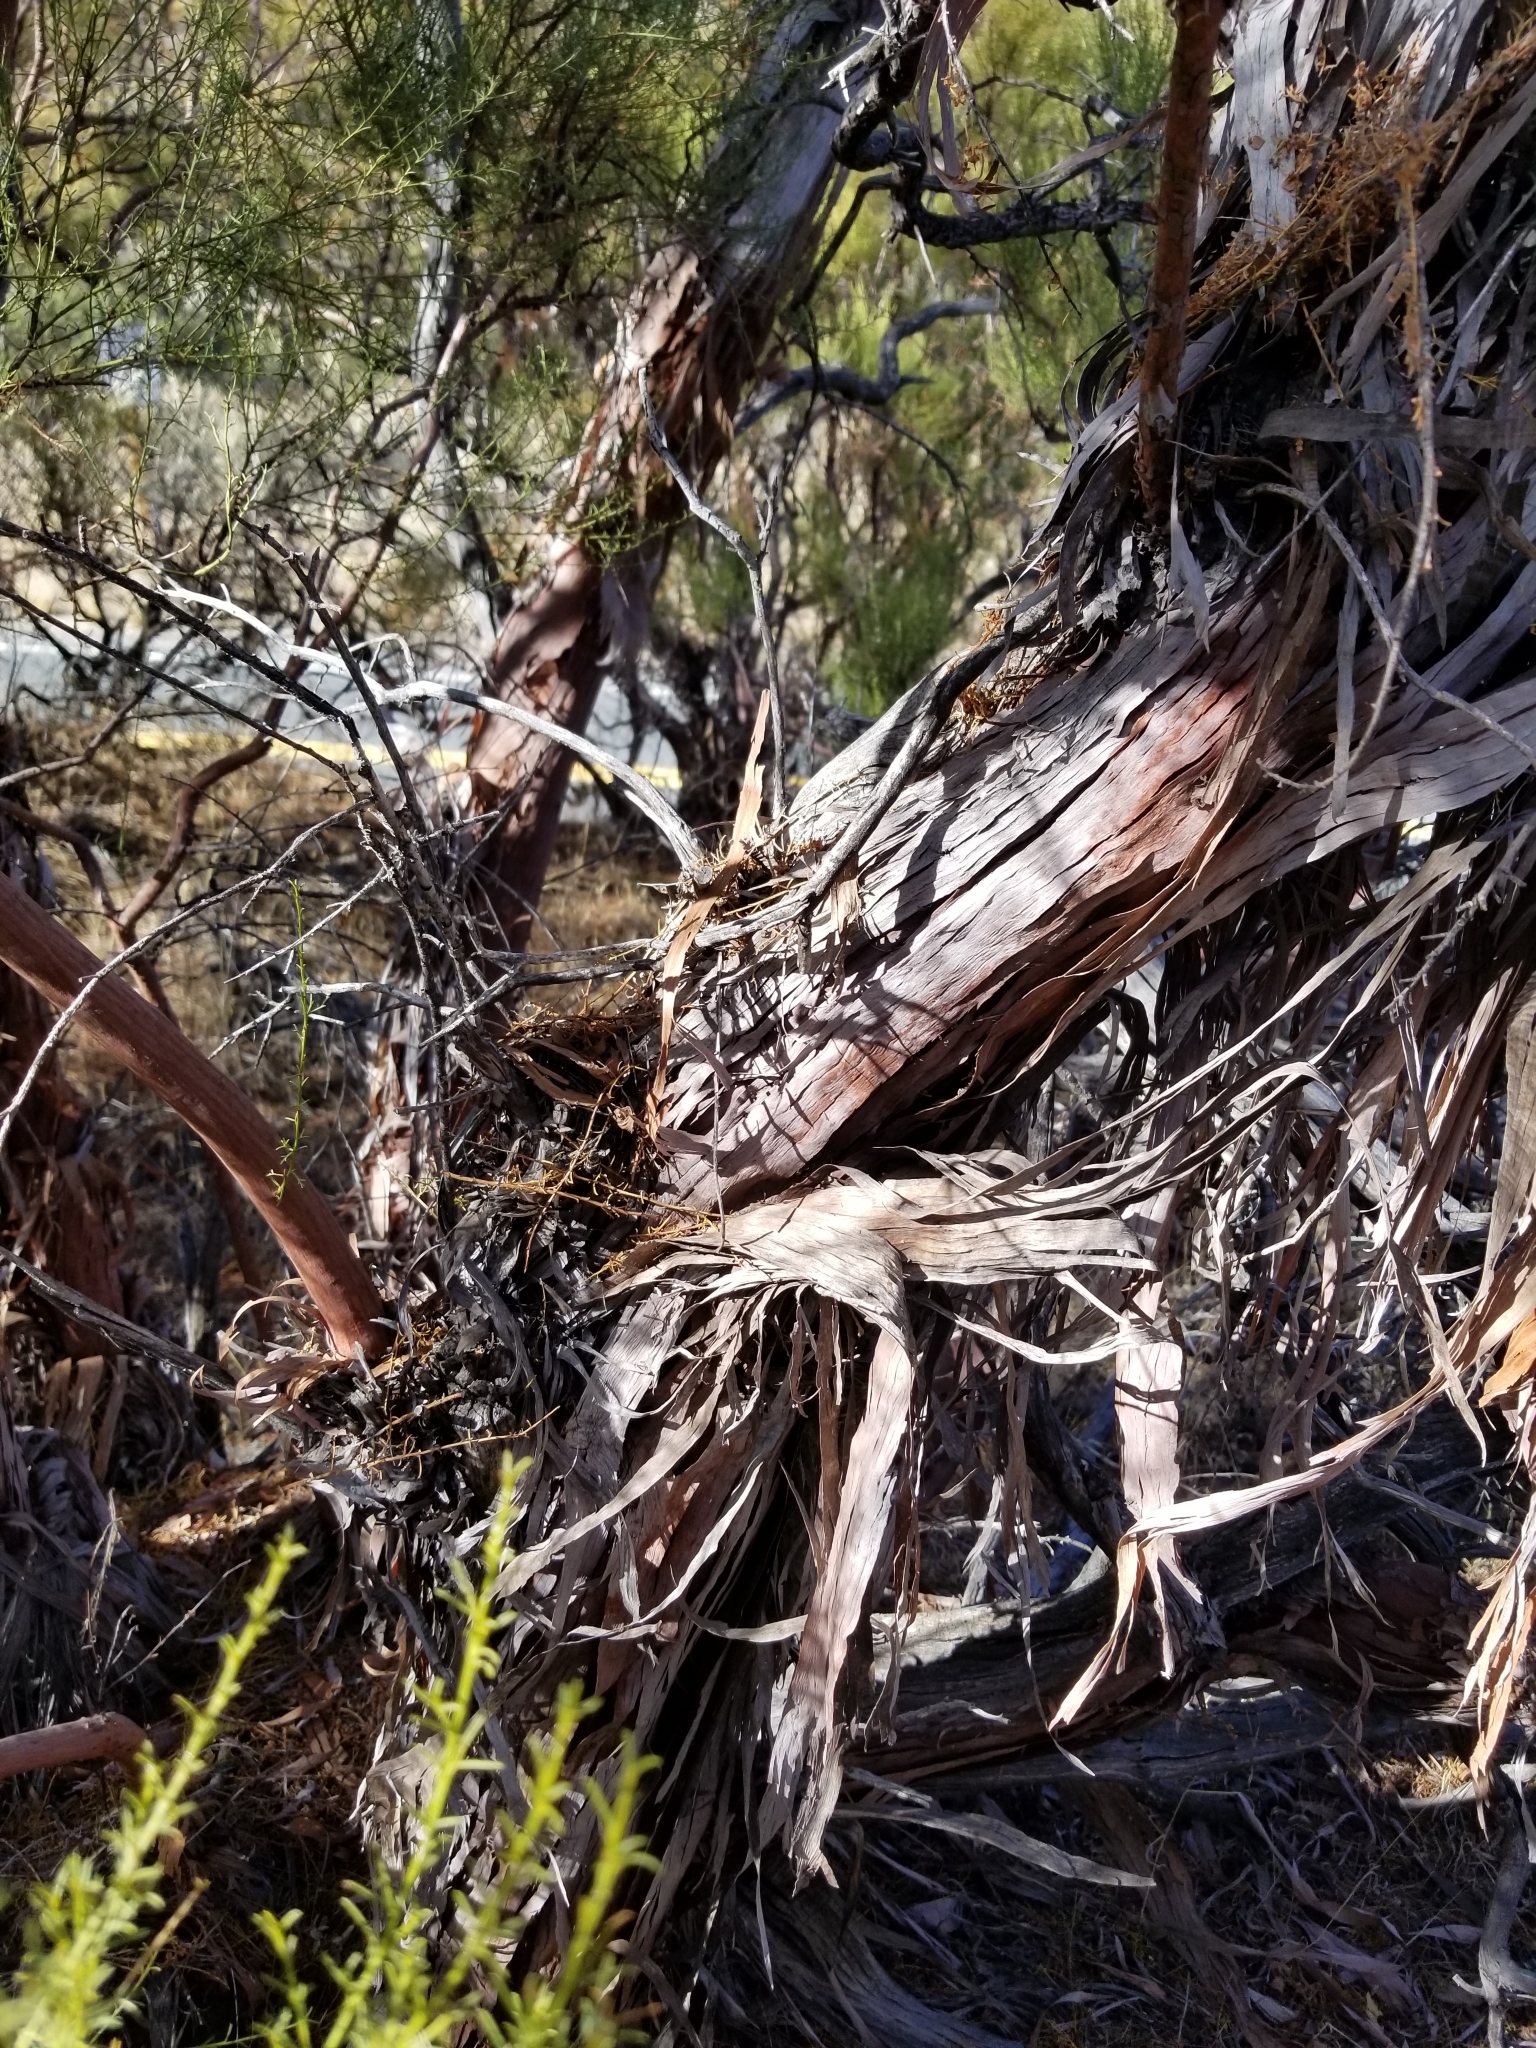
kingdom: Plantae
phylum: Tracheophyta
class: Magnoliopsida
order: Rosales
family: Rosaceae
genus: Adenostoma
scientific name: Adenostoma sparsifolium
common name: Red shank
